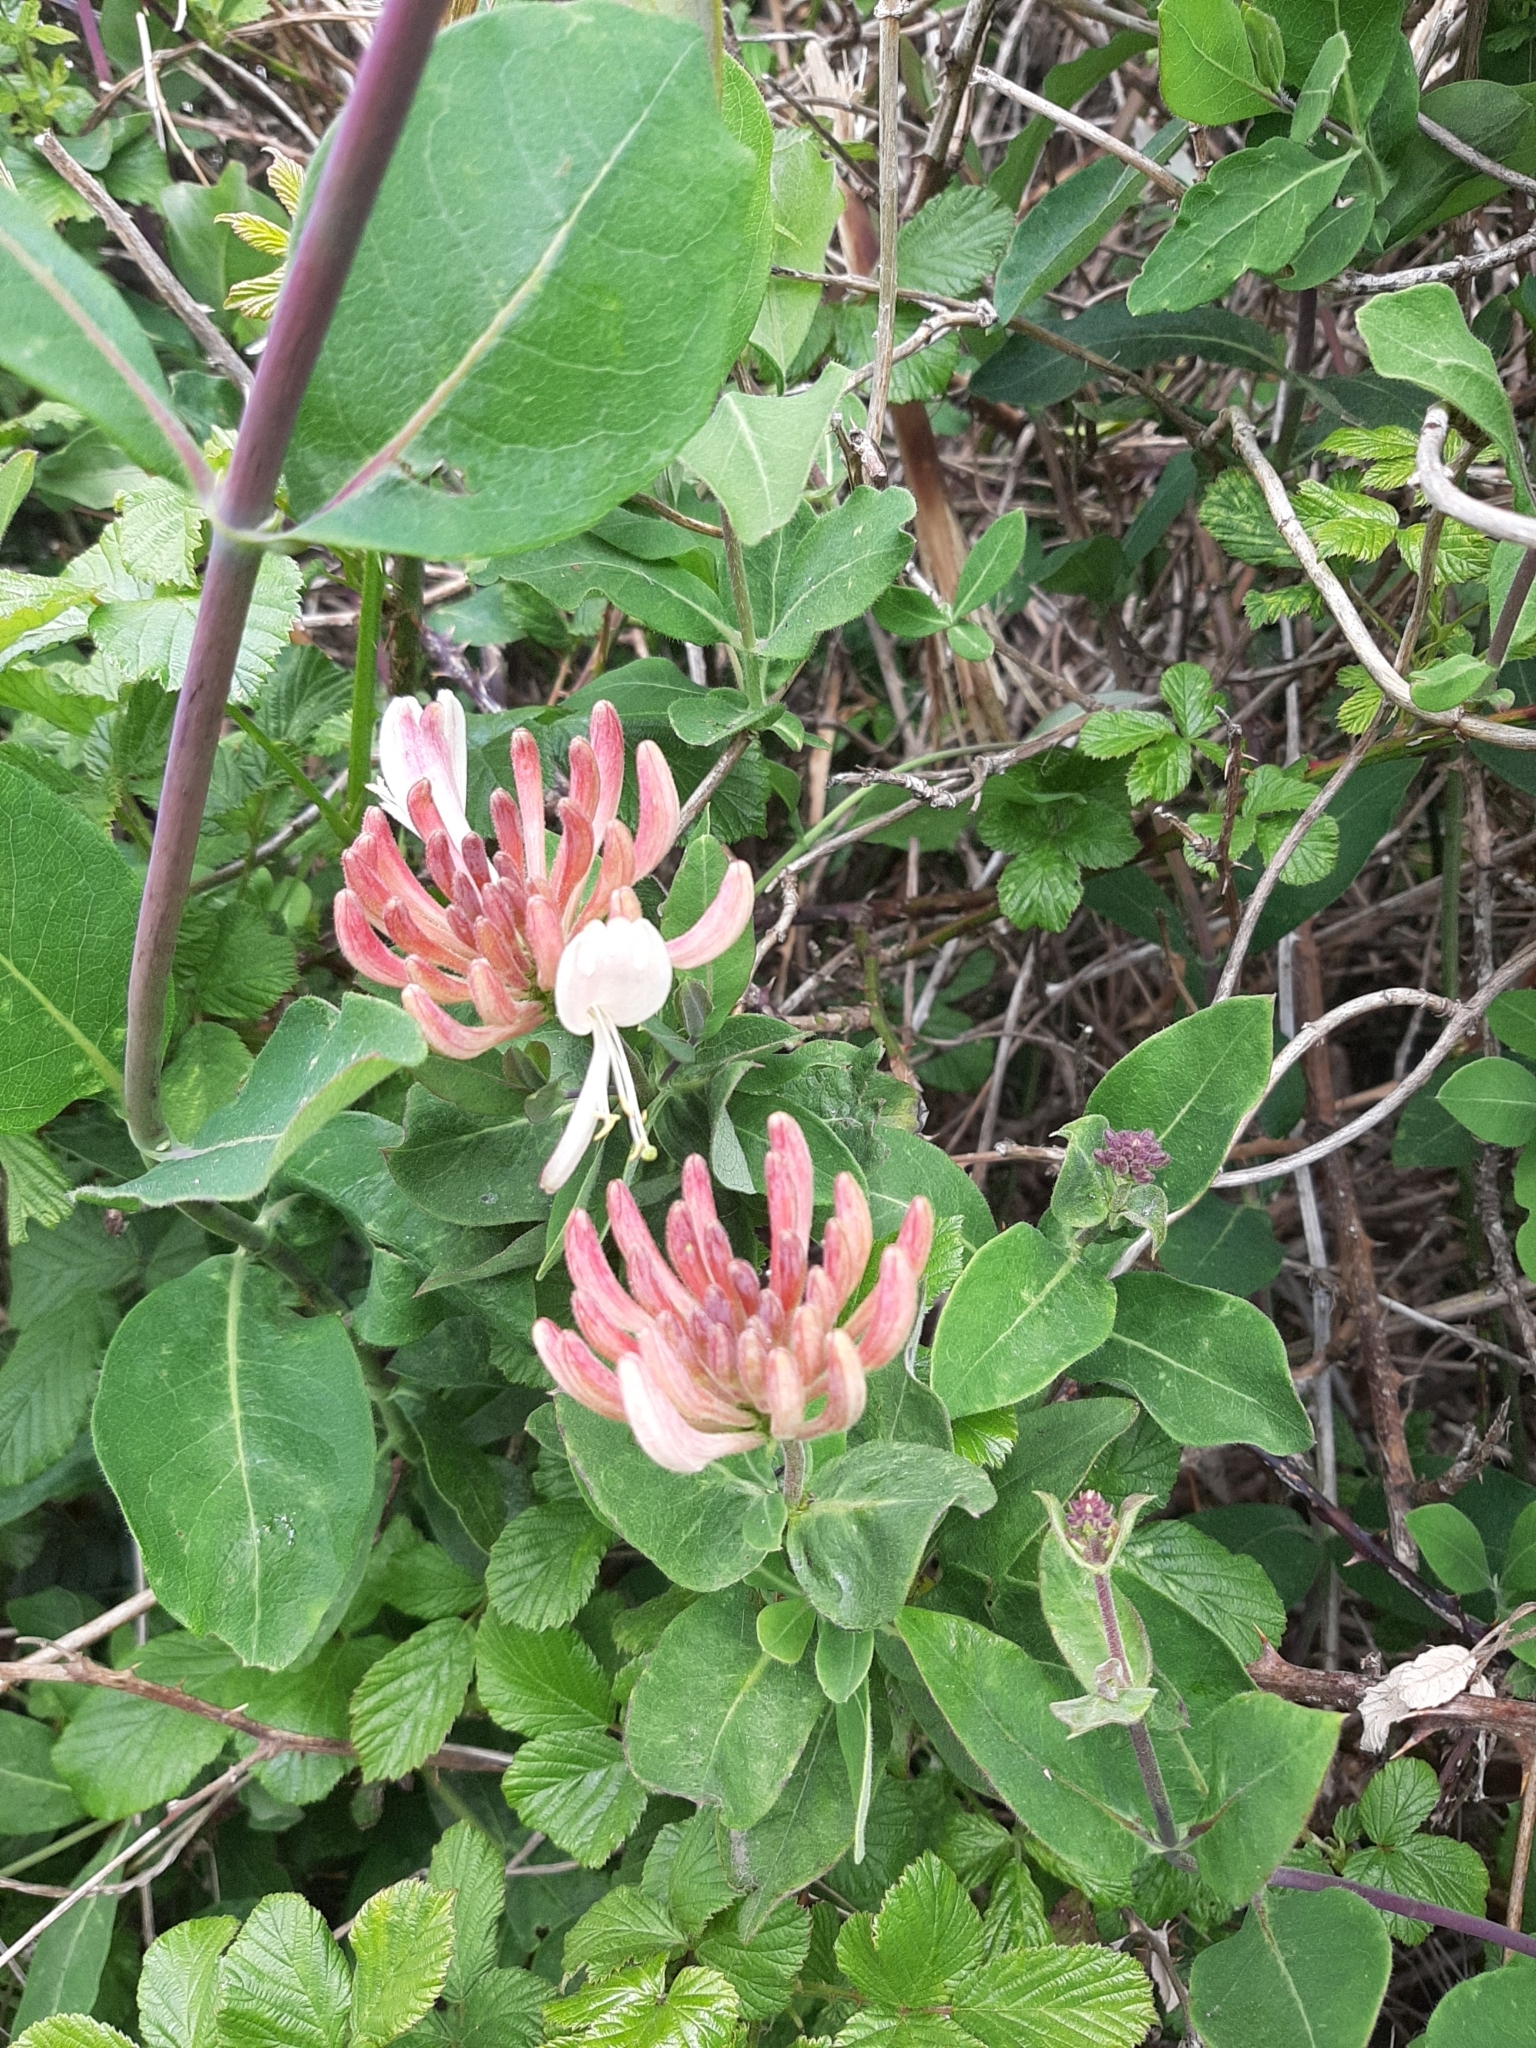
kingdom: Plantae
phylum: Tracheophyta
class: Magnoliopsida
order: Dipsacales
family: Caprifoliaceae
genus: Lonicera
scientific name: Lonicera periclymenum
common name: European honeysuckle
